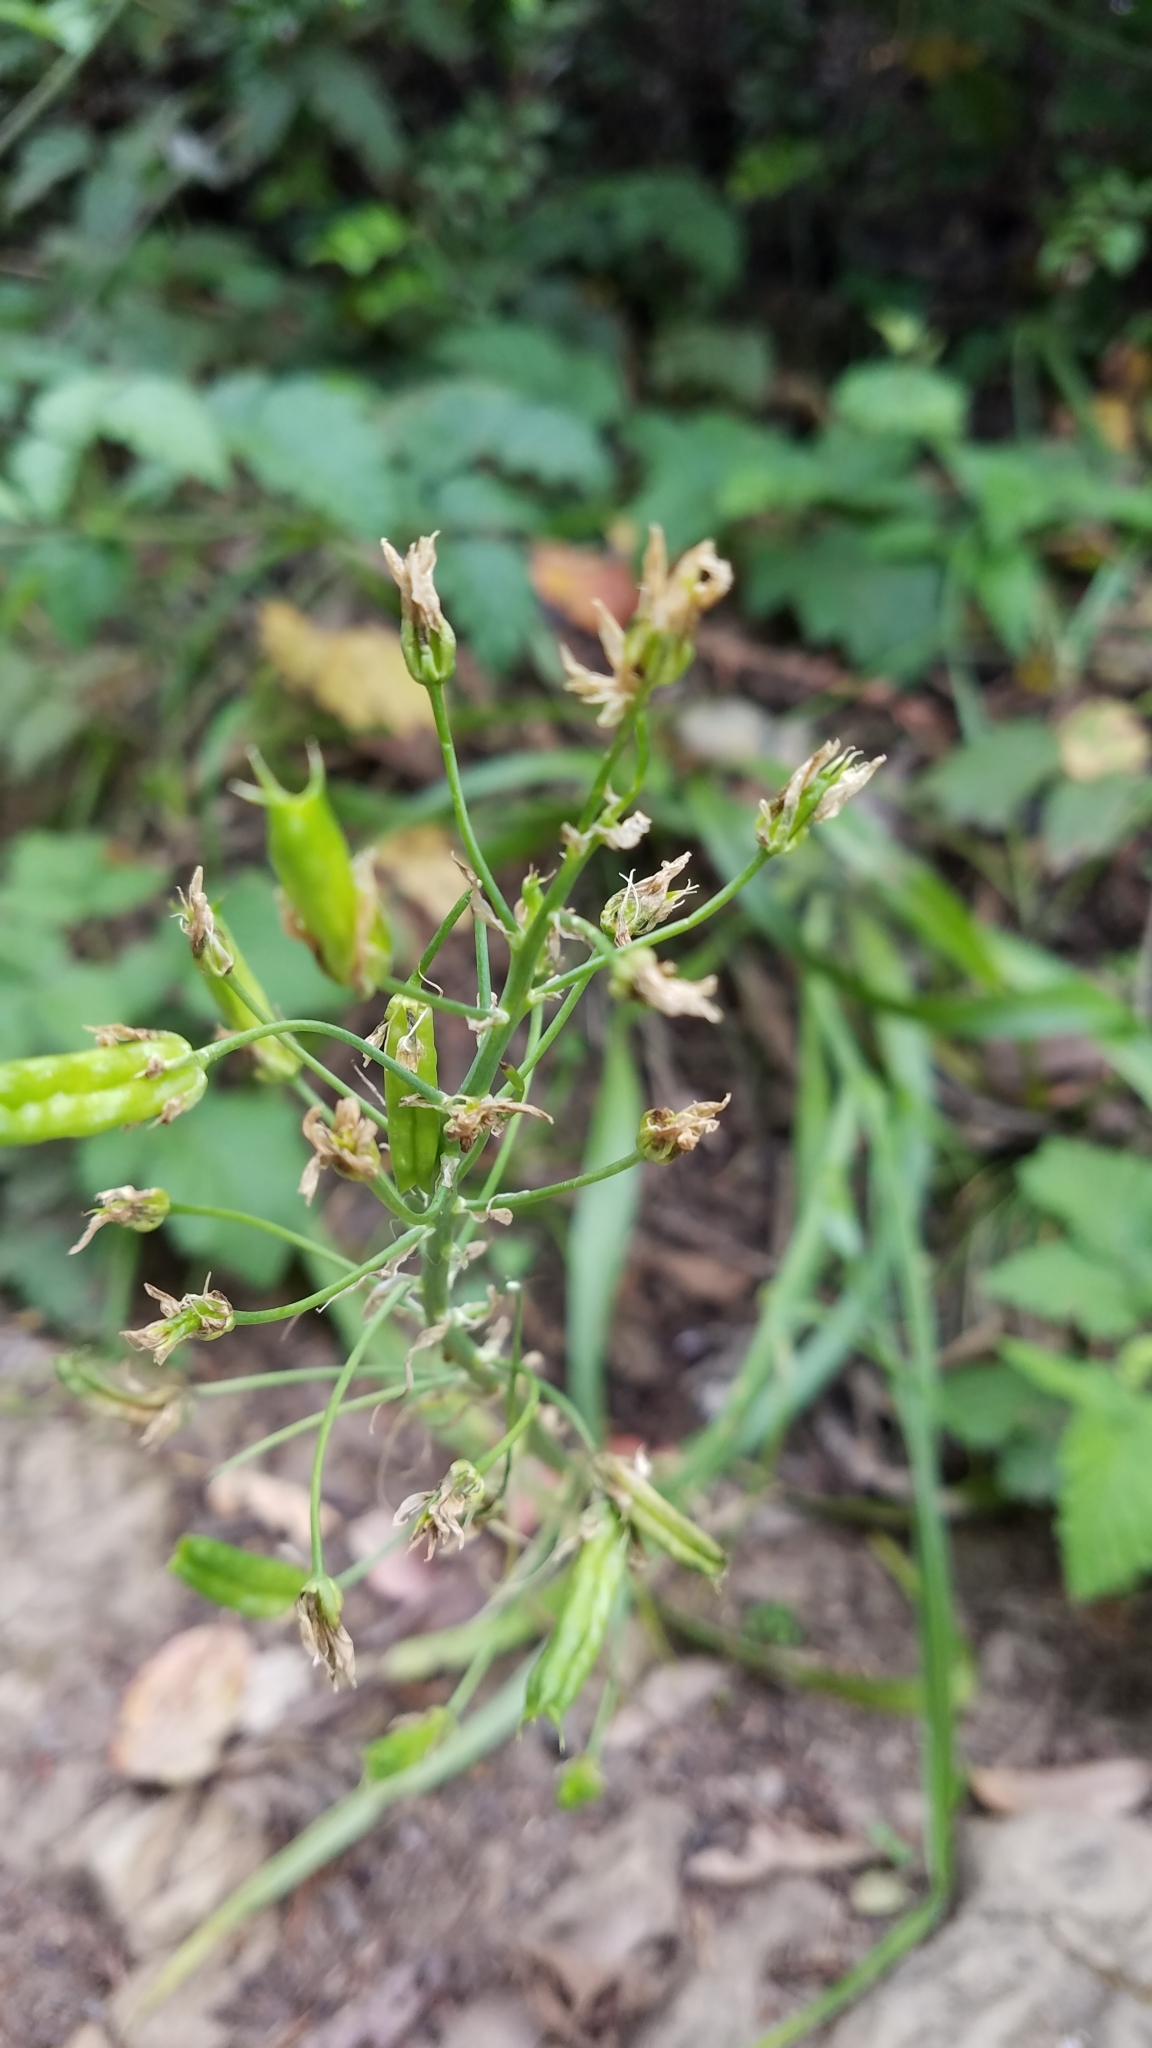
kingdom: Plantae
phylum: Tracheophyta
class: Liliopsida
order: Liliales
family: Melanthiaceae
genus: Toxicoscordion
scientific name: Toxicoscordion fremontii
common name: Fremont's death camas
